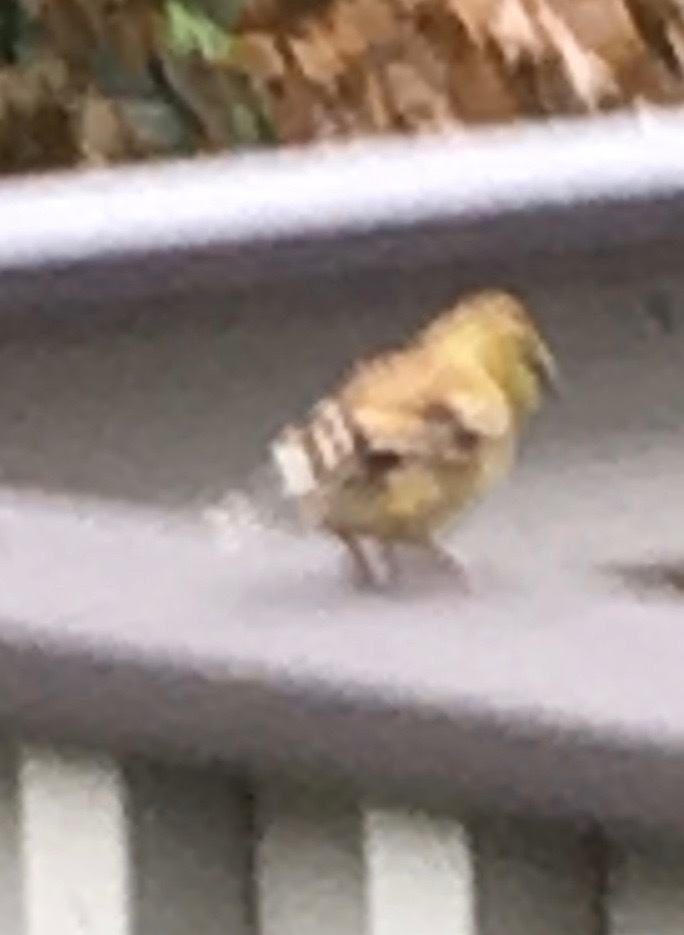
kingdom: Animalia
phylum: Chordata
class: Aves
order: Passeriformes
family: Fringillidae
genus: Spinus
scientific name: Spinus tristis
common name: American goldfinch
